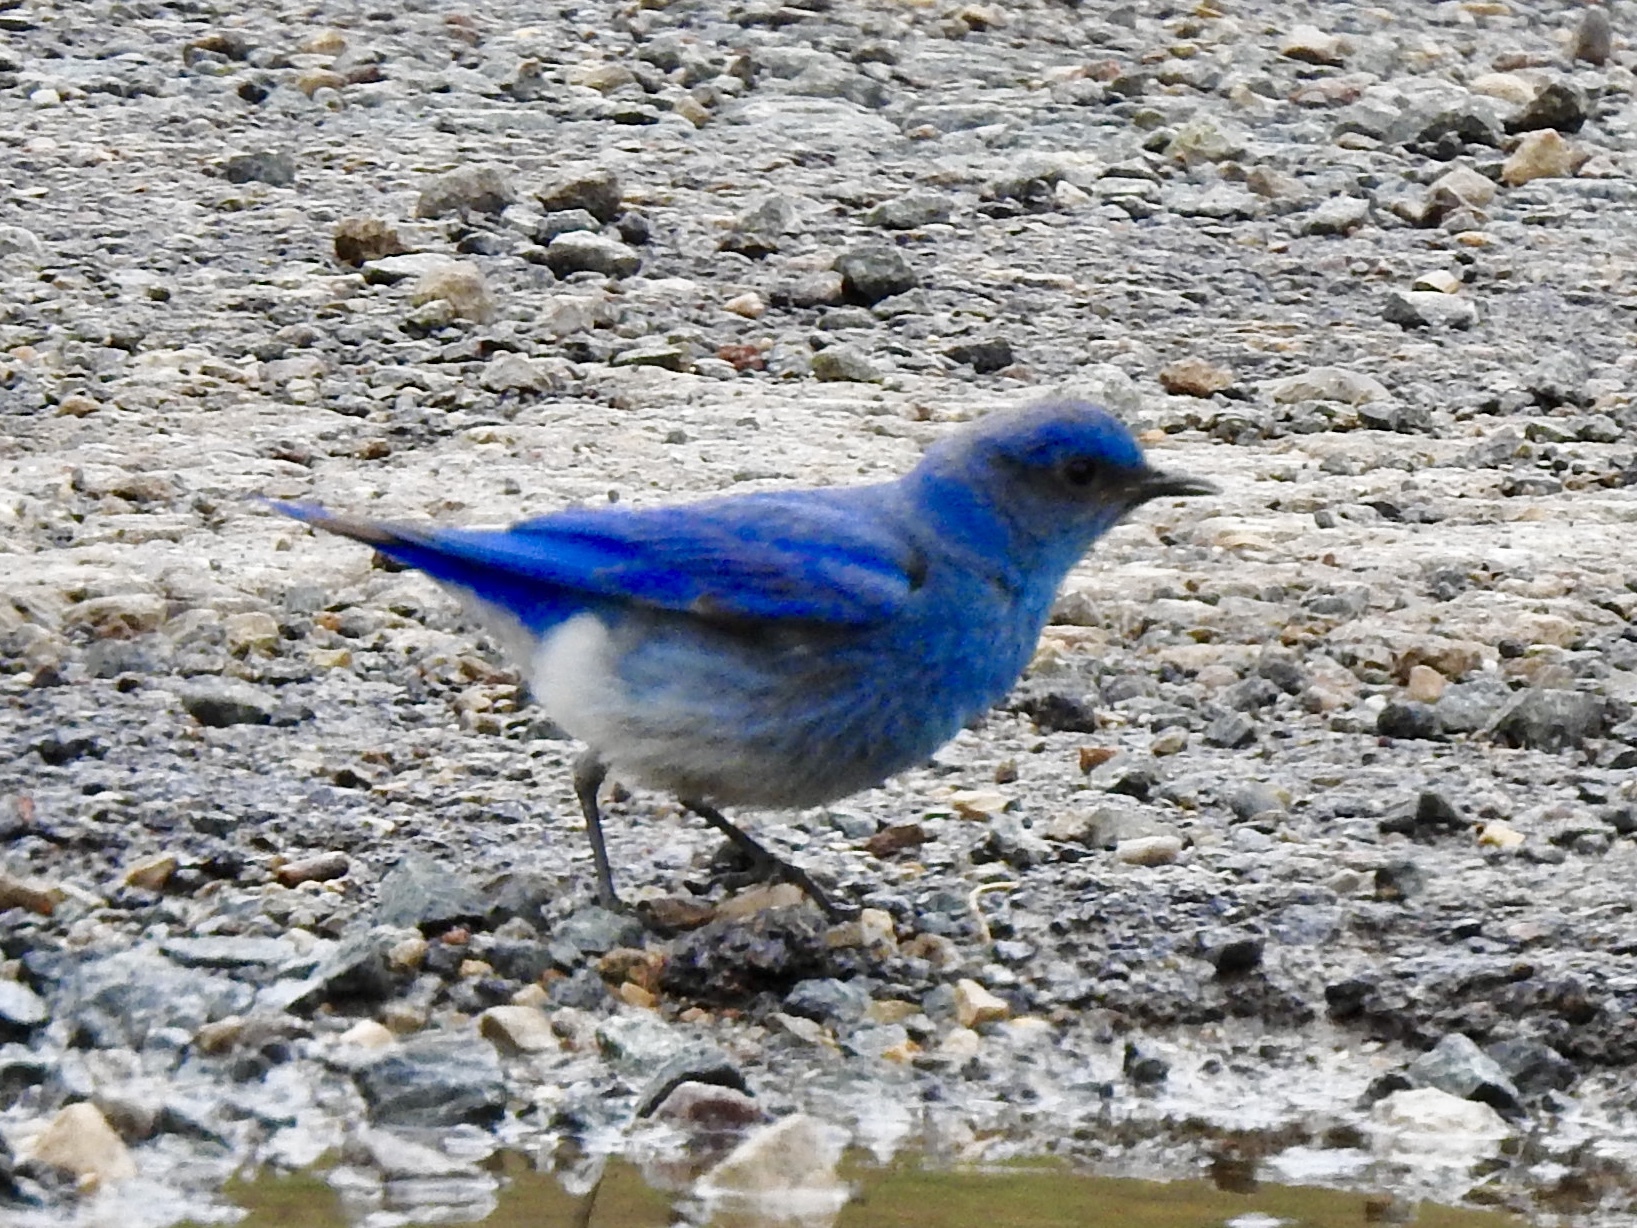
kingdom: Animalia
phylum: Chordata
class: Aves
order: Passeriformes
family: Turdidae
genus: Sialia
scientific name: Sialia currucoides
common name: Mountain bluebird
